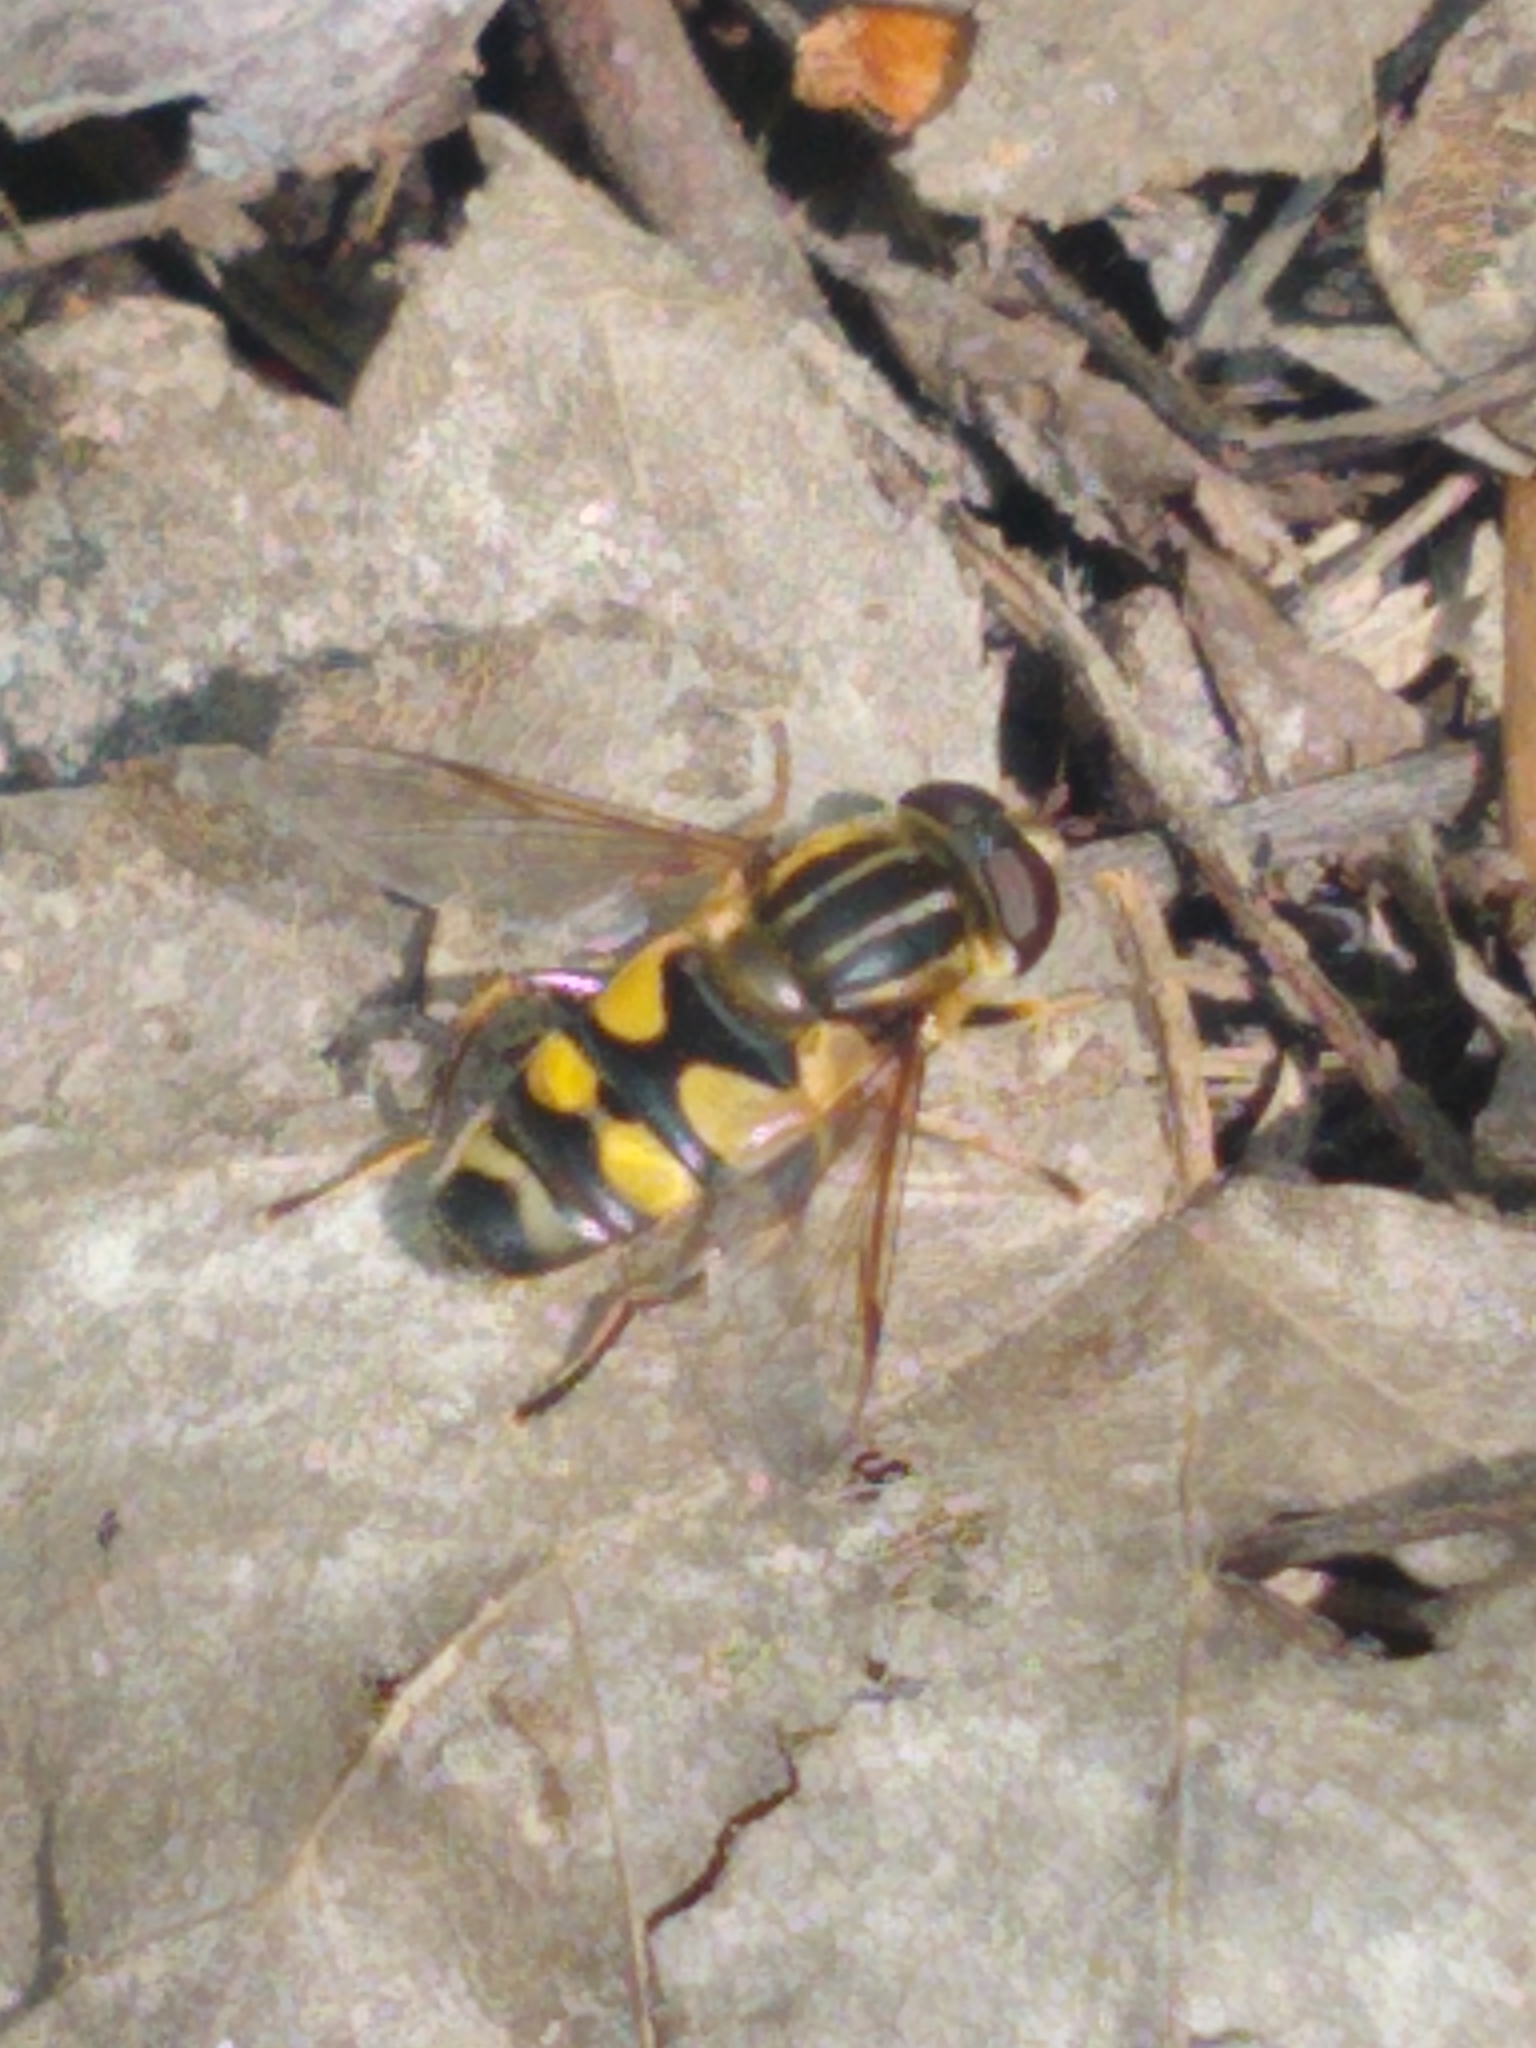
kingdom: Animalia
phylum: Arthropoda
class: Insecta
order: Diptera
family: Syrphidae
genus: Helophilus
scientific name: Helophilus fasciatus
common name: Narrow-headed marsh fly
